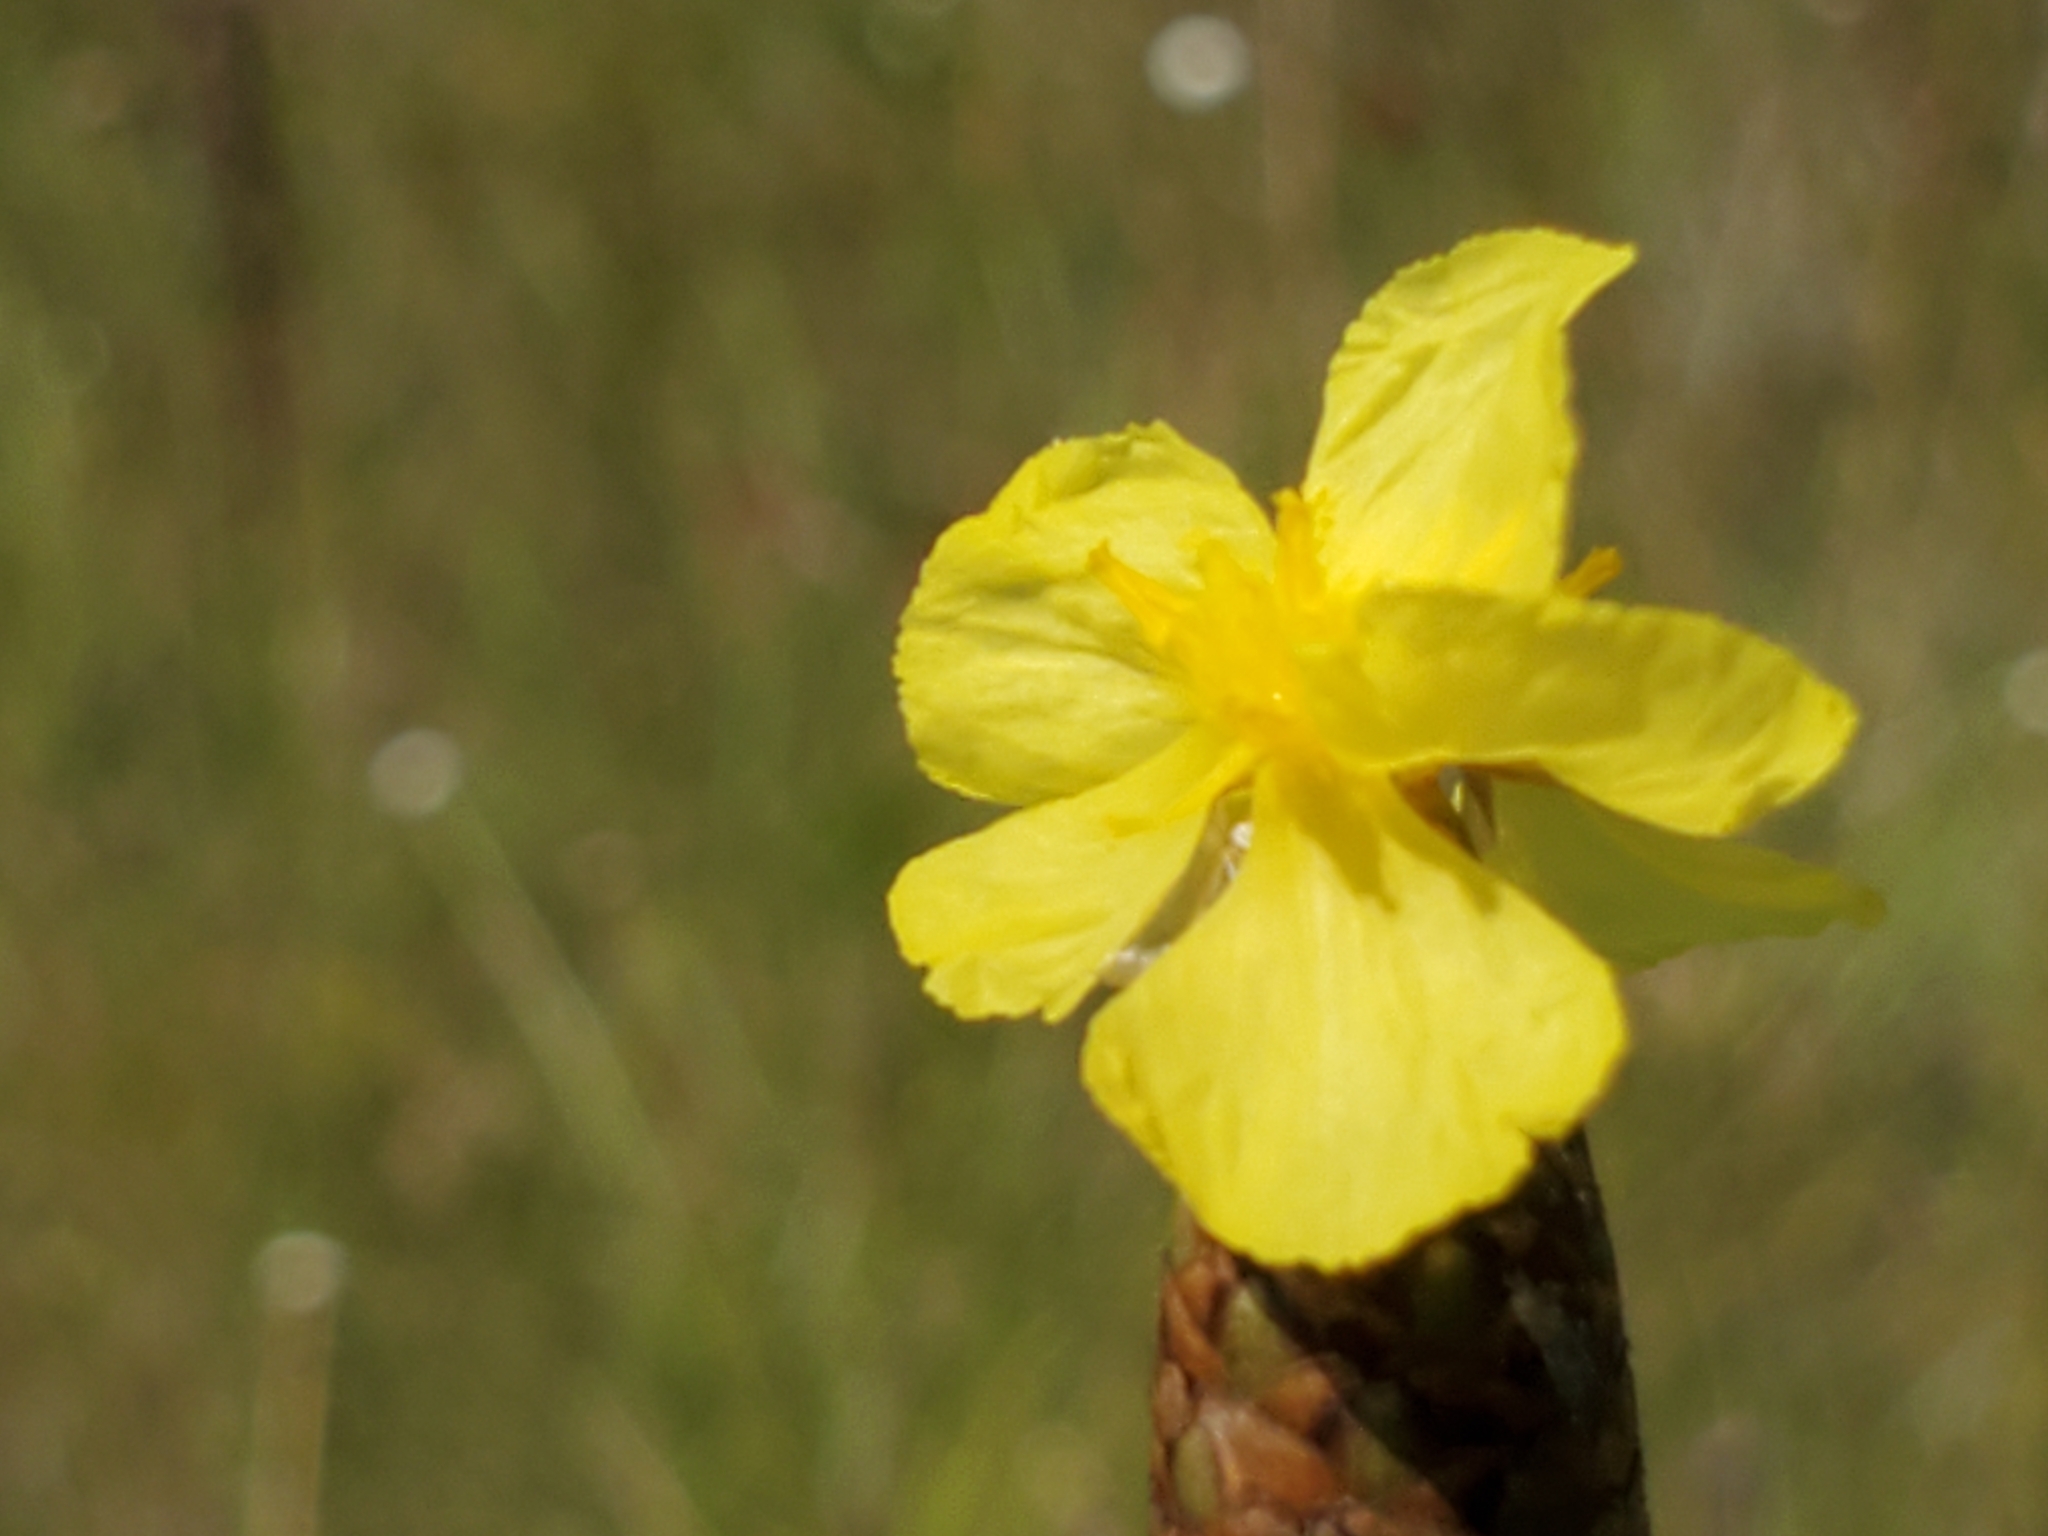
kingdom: Plantae
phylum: Tracheophyta
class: Liliopsida
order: Poales
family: Xyridaceae
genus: Xyris
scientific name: Xyris ambigua
